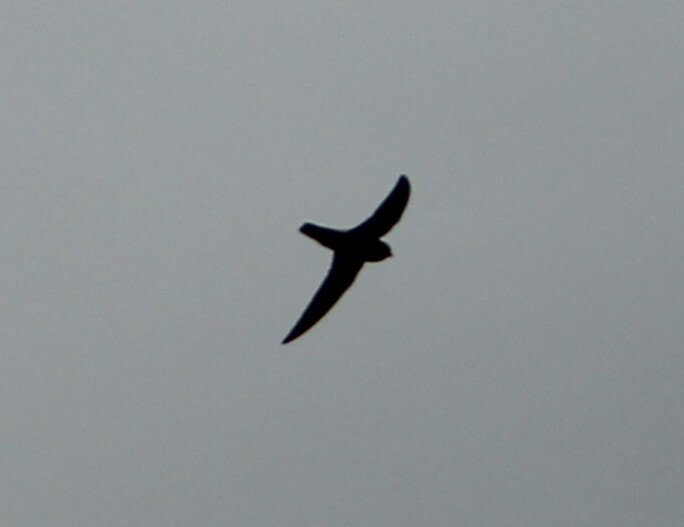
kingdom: Animalia
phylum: Chordata
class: Aves
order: Apodiformes
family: Apodidae
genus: Apus
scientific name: Apus affinis
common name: Little swift
